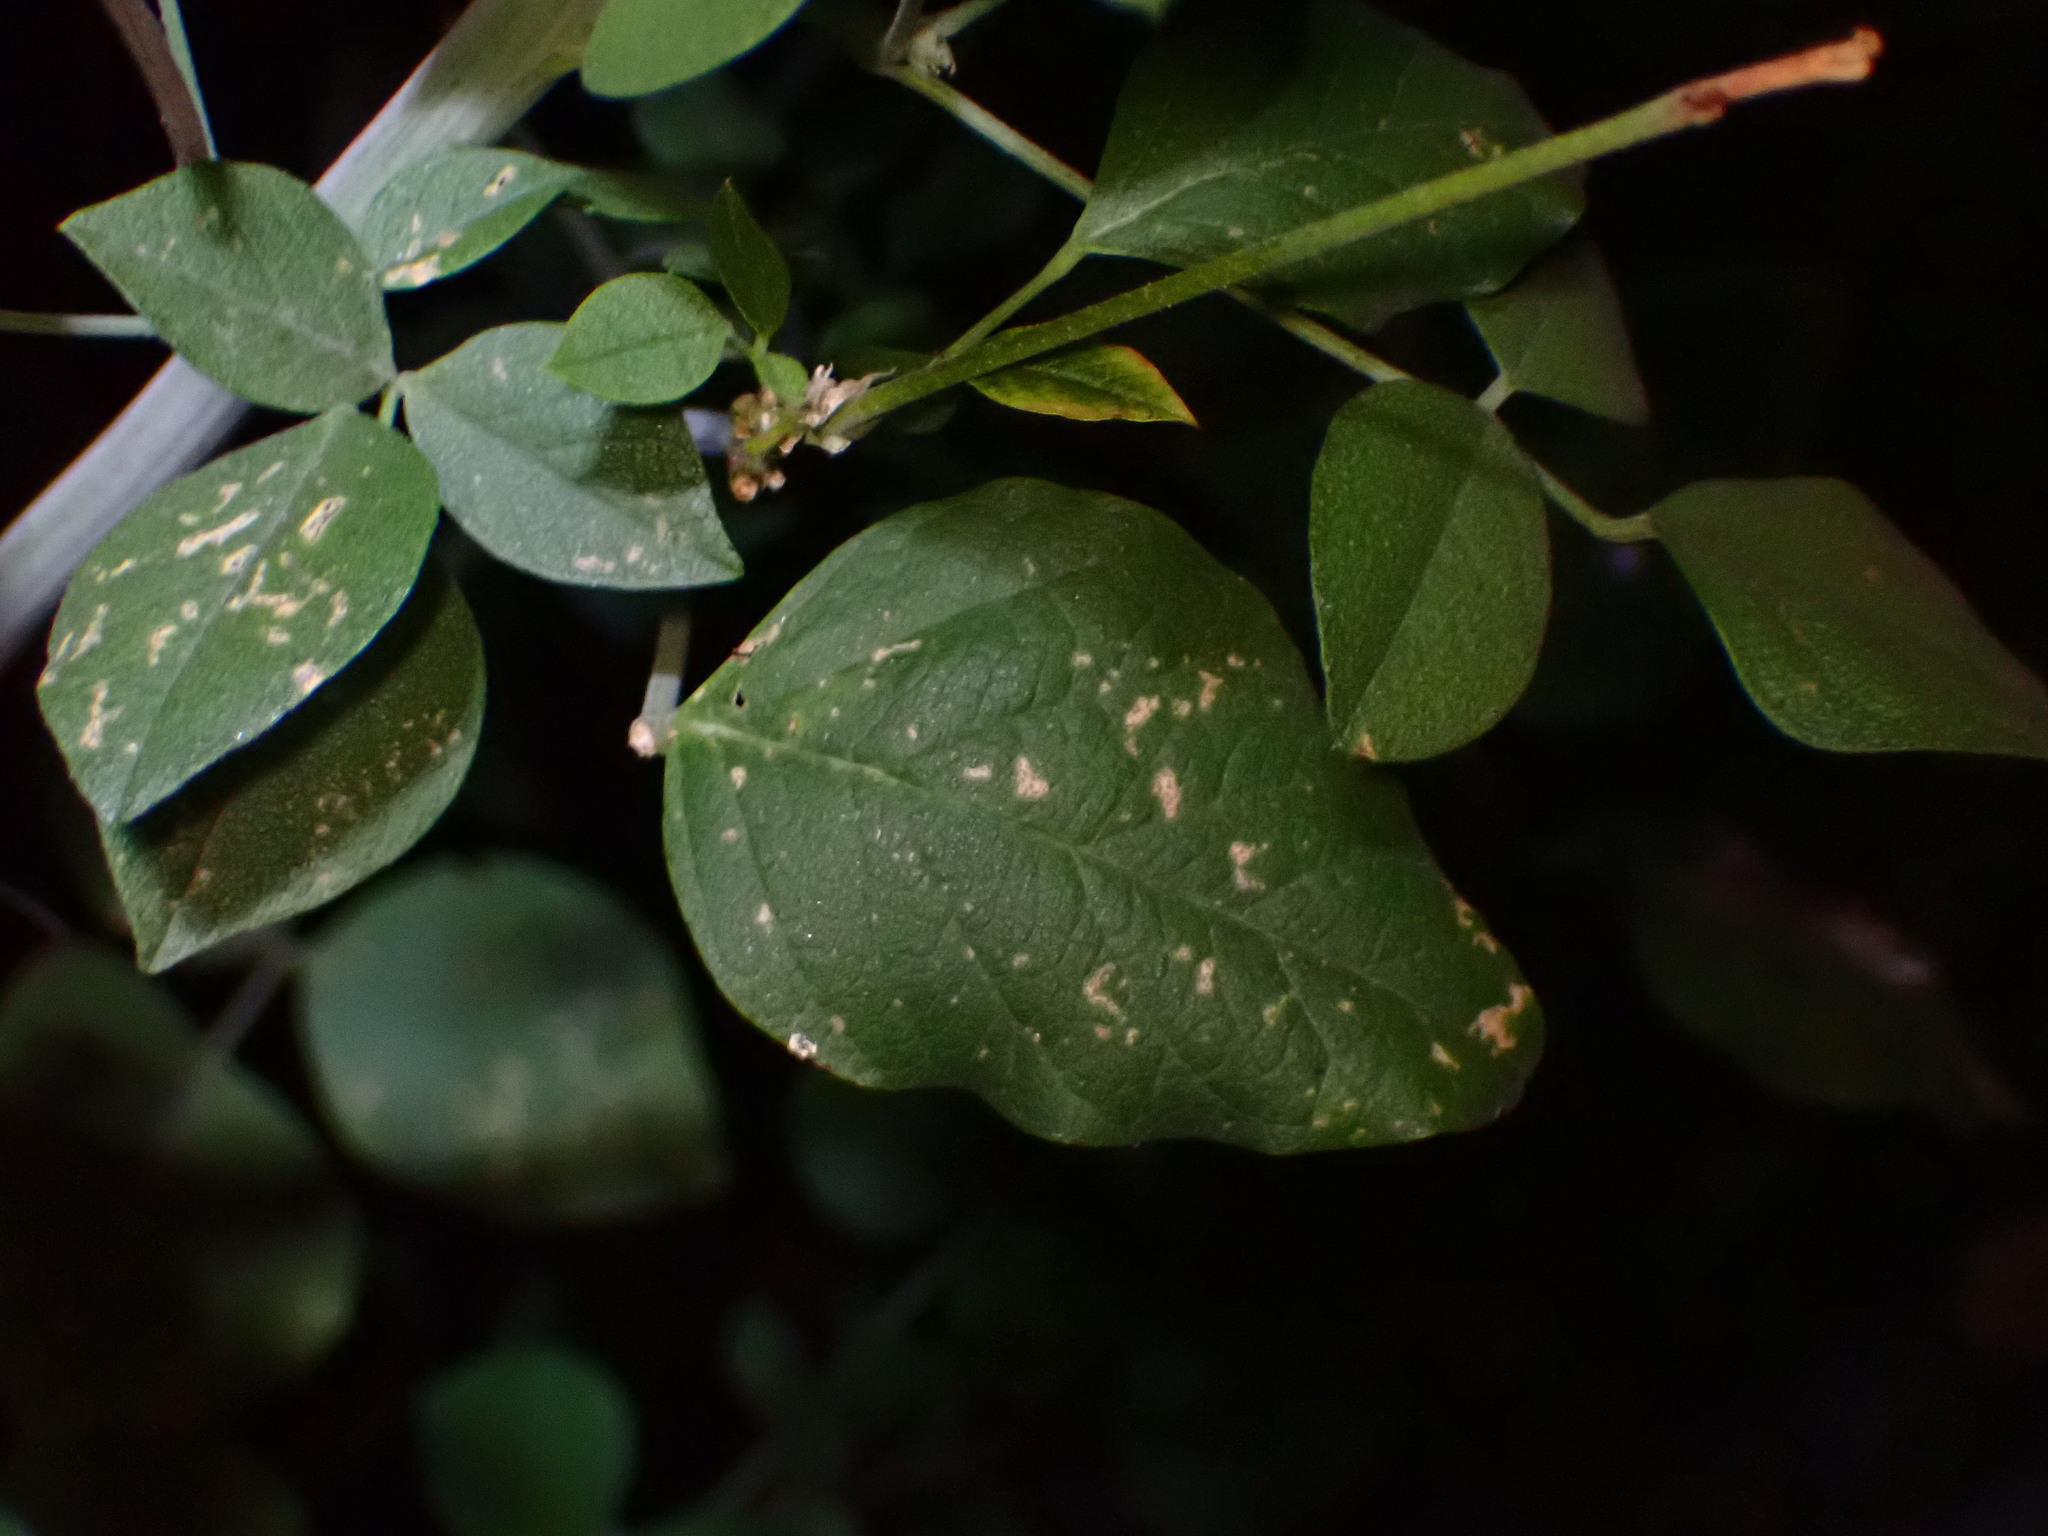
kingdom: Plantae
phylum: Tracheophyta
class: Magnoliopsida
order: Fabales
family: Fabaceae
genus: Hoita
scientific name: Hoita macrostachya
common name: Leatherroot
